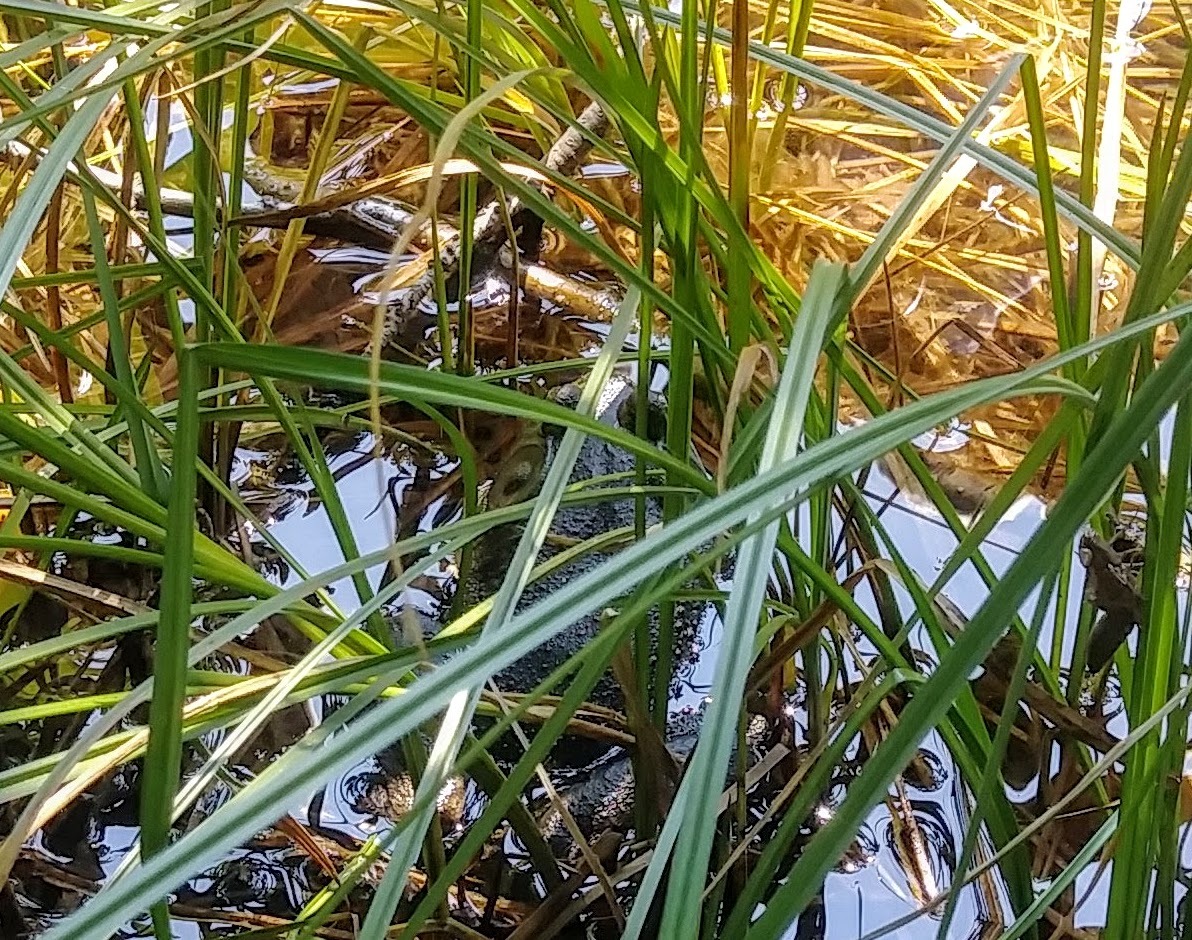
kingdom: Animalia
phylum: Chordata
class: Amphibia
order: Anura
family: Ranidae
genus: Lithobates
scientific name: Lithobates catesbeianus
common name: American bullfrog
